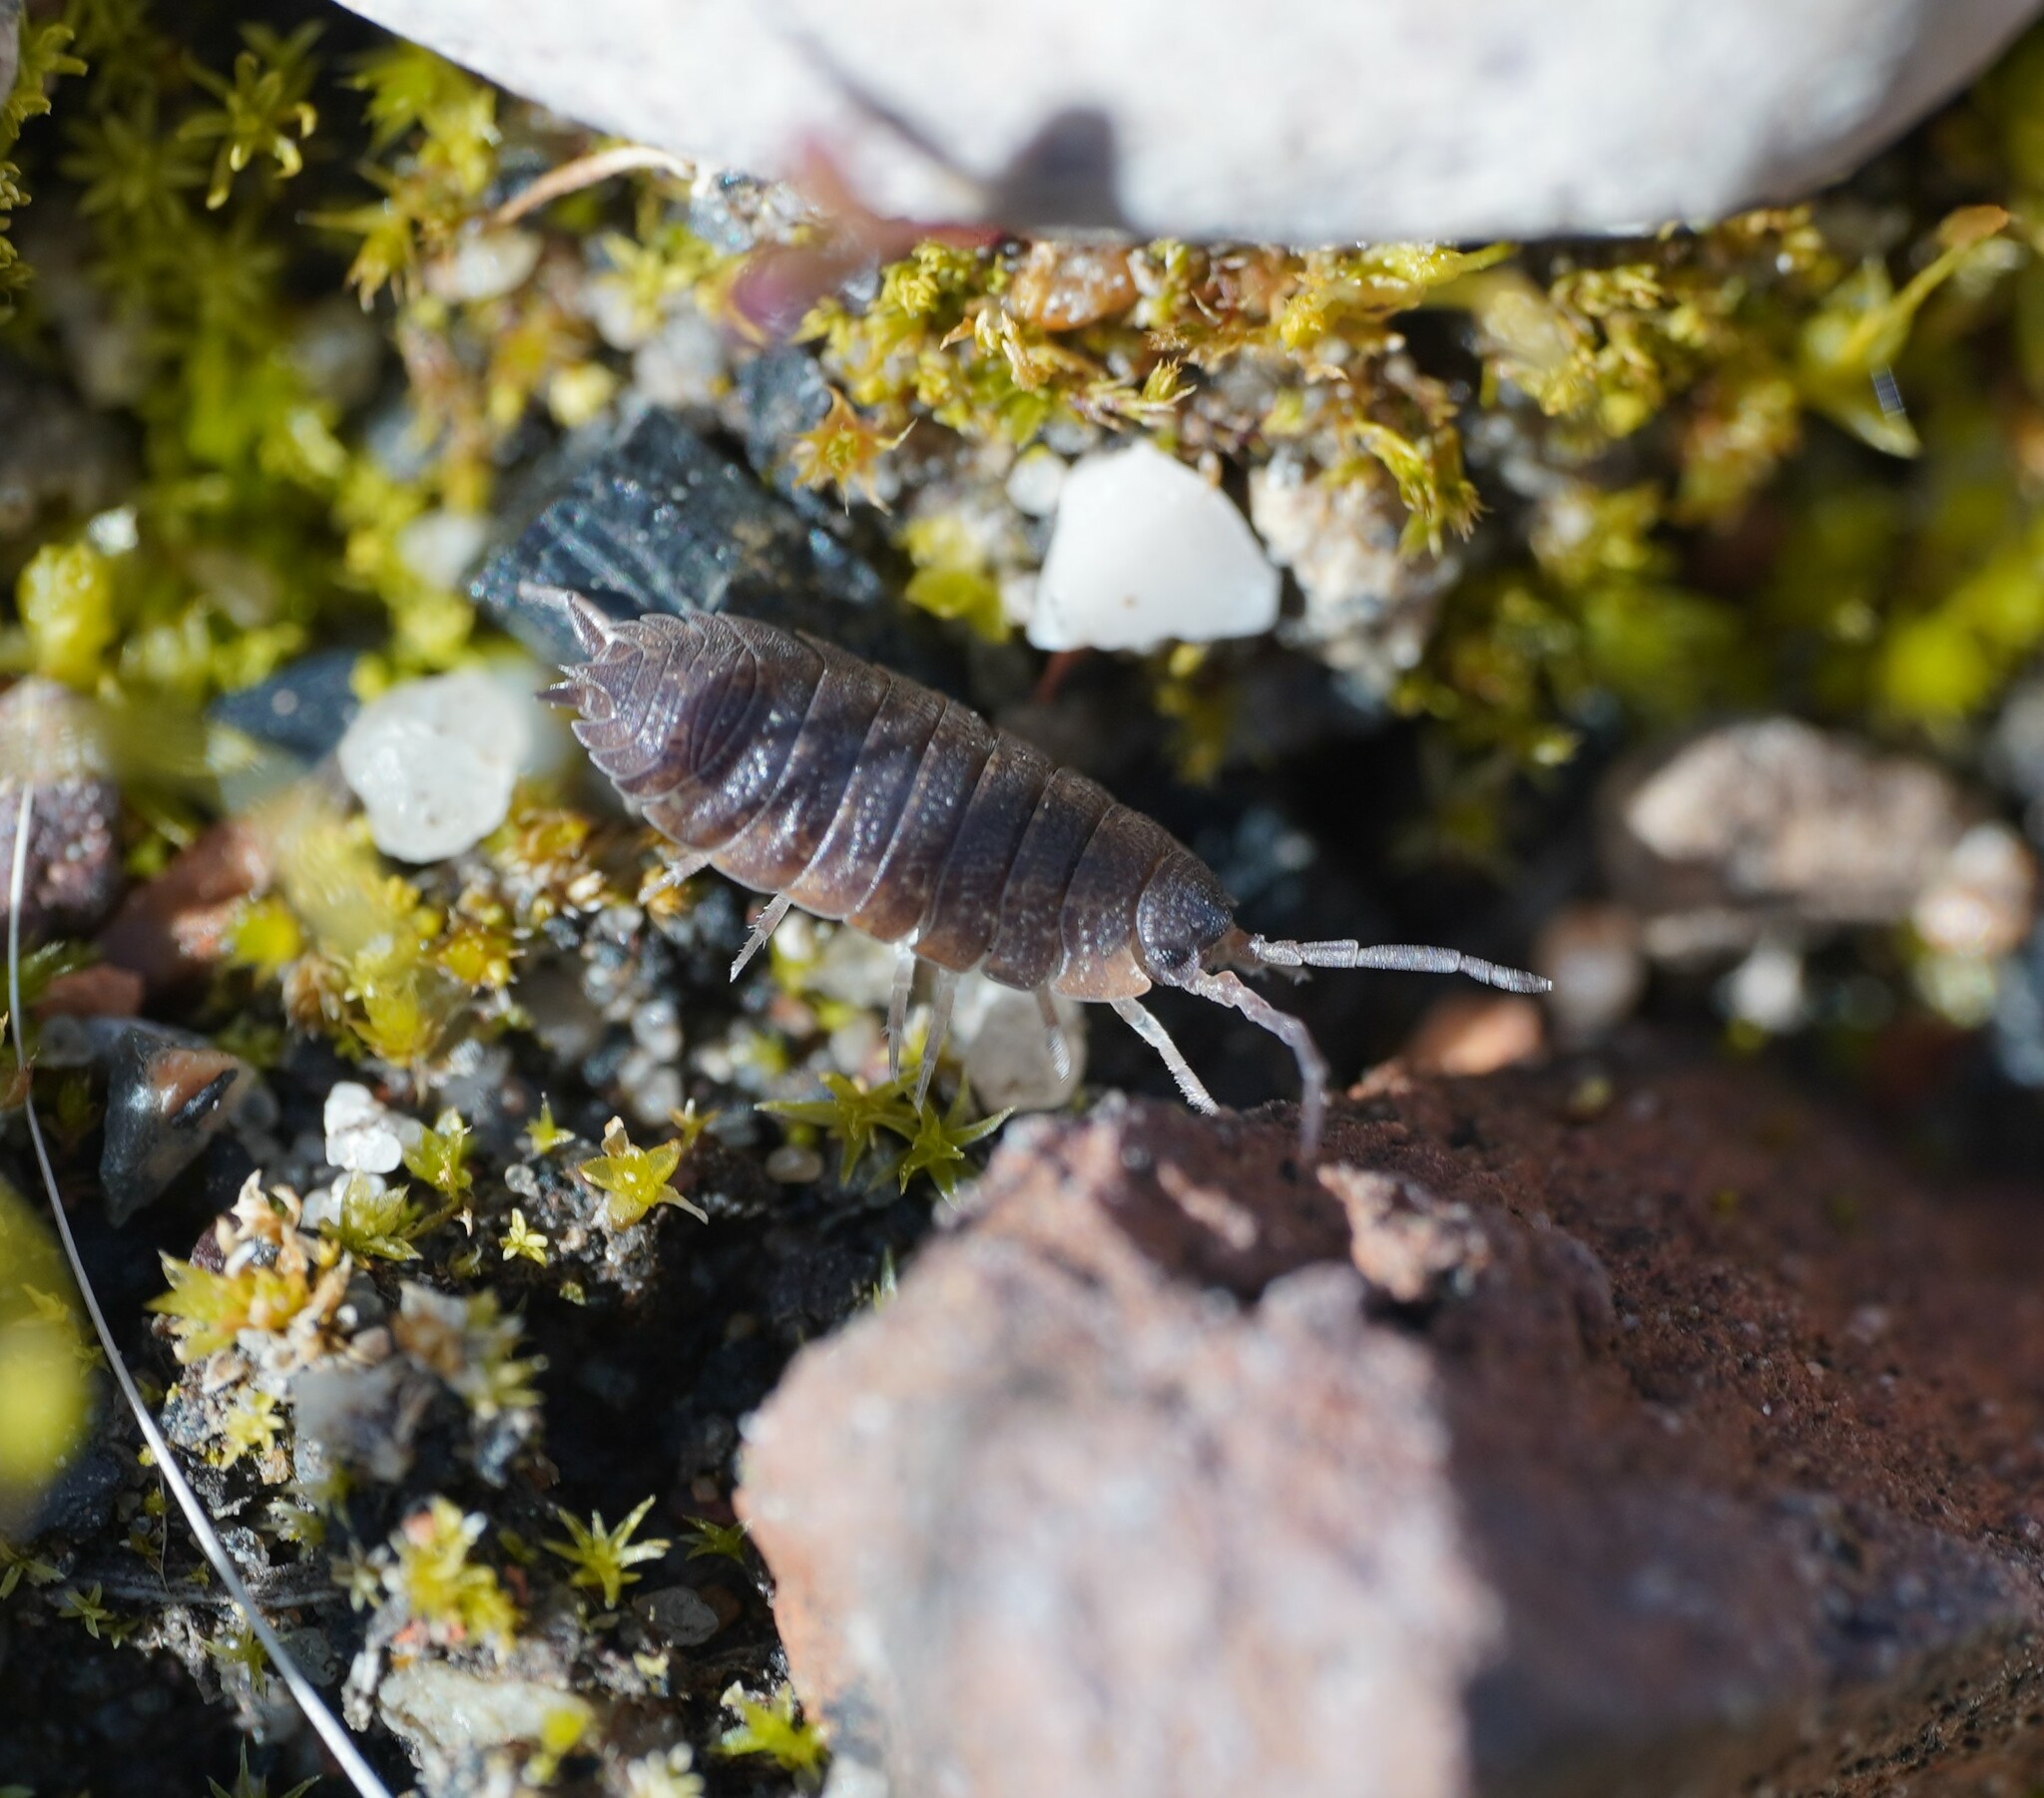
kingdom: Animalia
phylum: Arthropoda
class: Malacostraca
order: Isopoda
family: Porcellionidae
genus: Porcellio
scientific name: Porcellio scaber
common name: Common rough woodlouse
